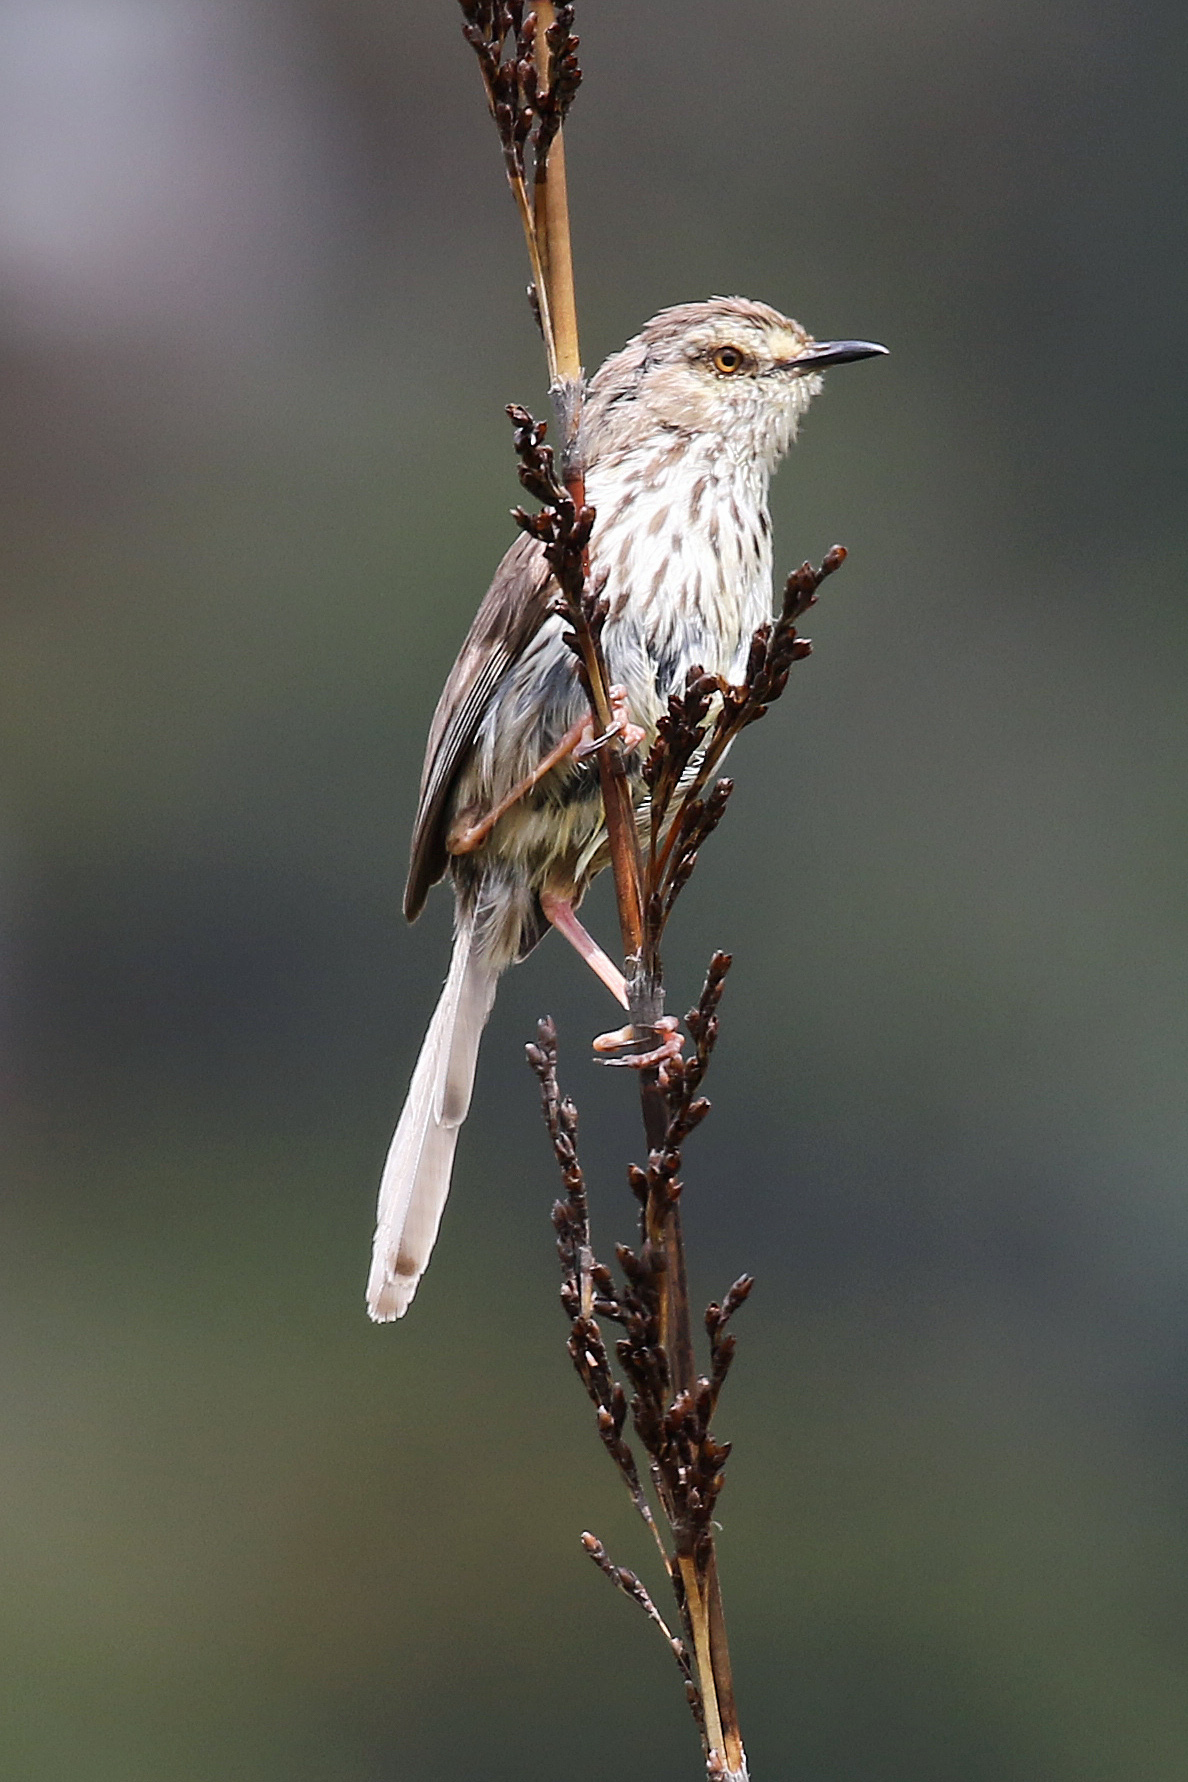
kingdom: Animalia
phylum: Chordata
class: Aves
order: Passeriformes
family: Cisticolidae
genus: Prinia
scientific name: Prinia maculosa
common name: Karoo prinia
